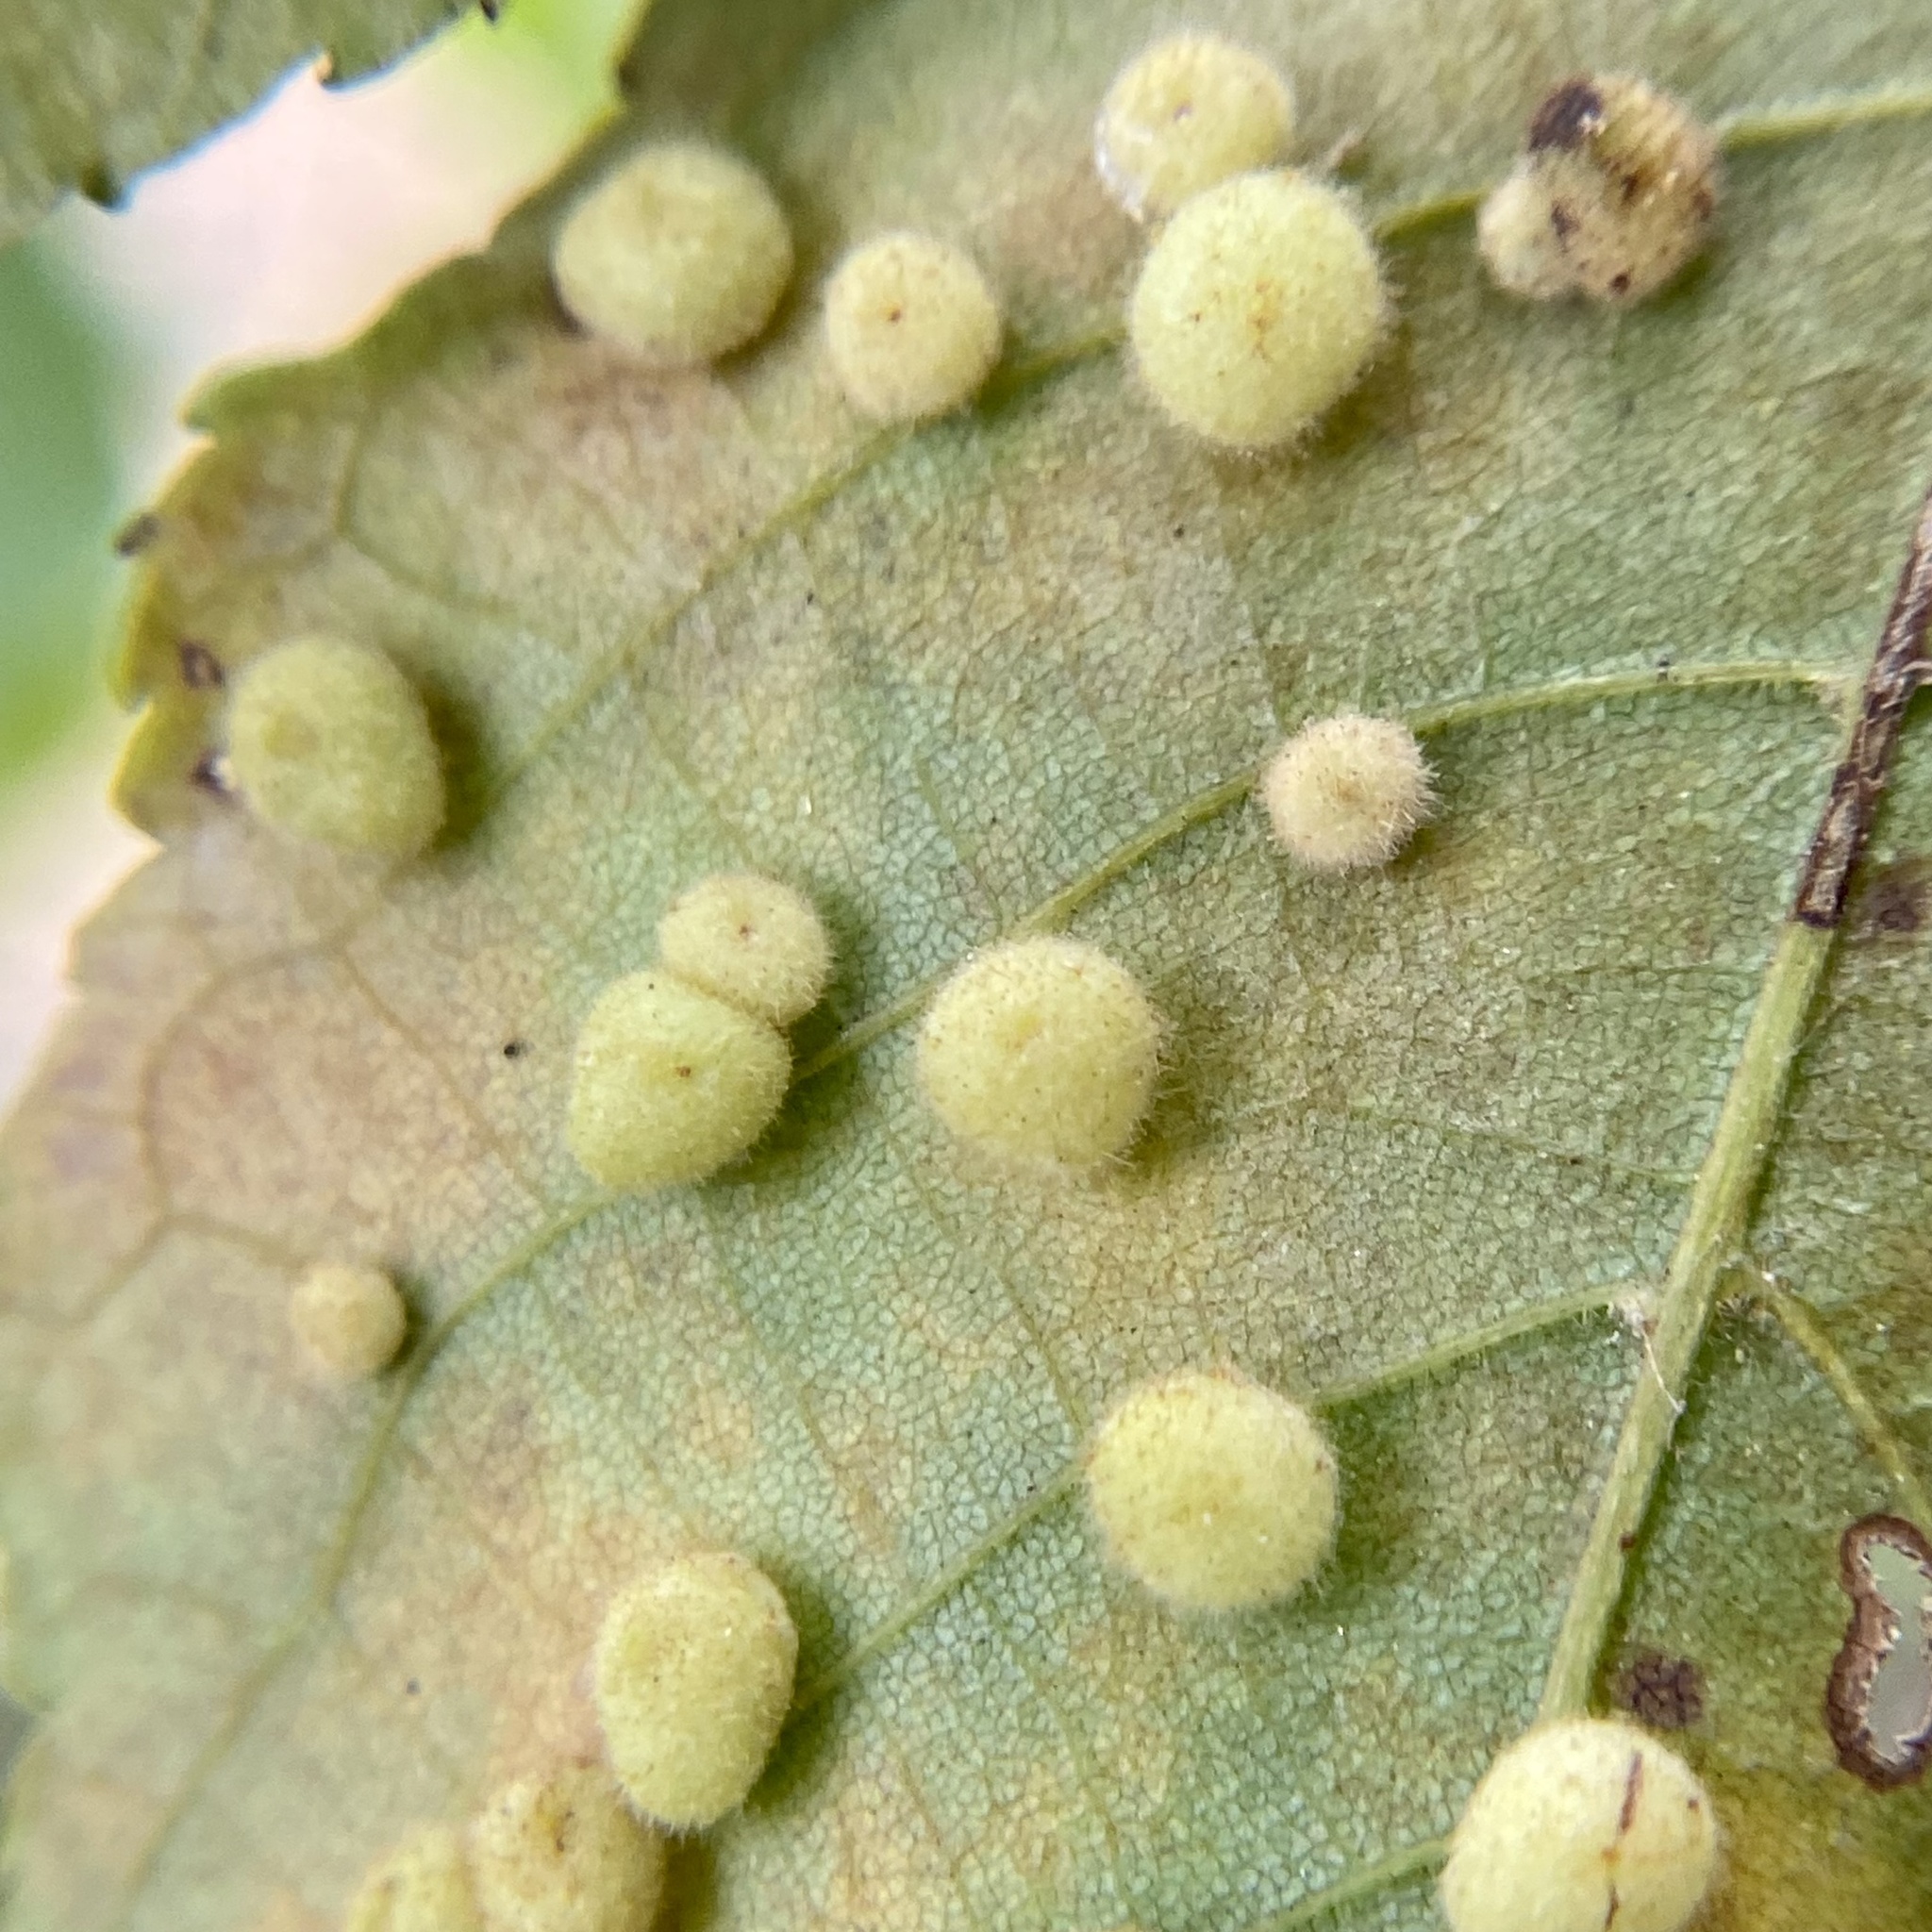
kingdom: Animalia
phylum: Arthropoda
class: Insecta
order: Diptera
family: Cecidomyiidae
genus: Caryomyia
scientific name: Caryomyia thompsoni
